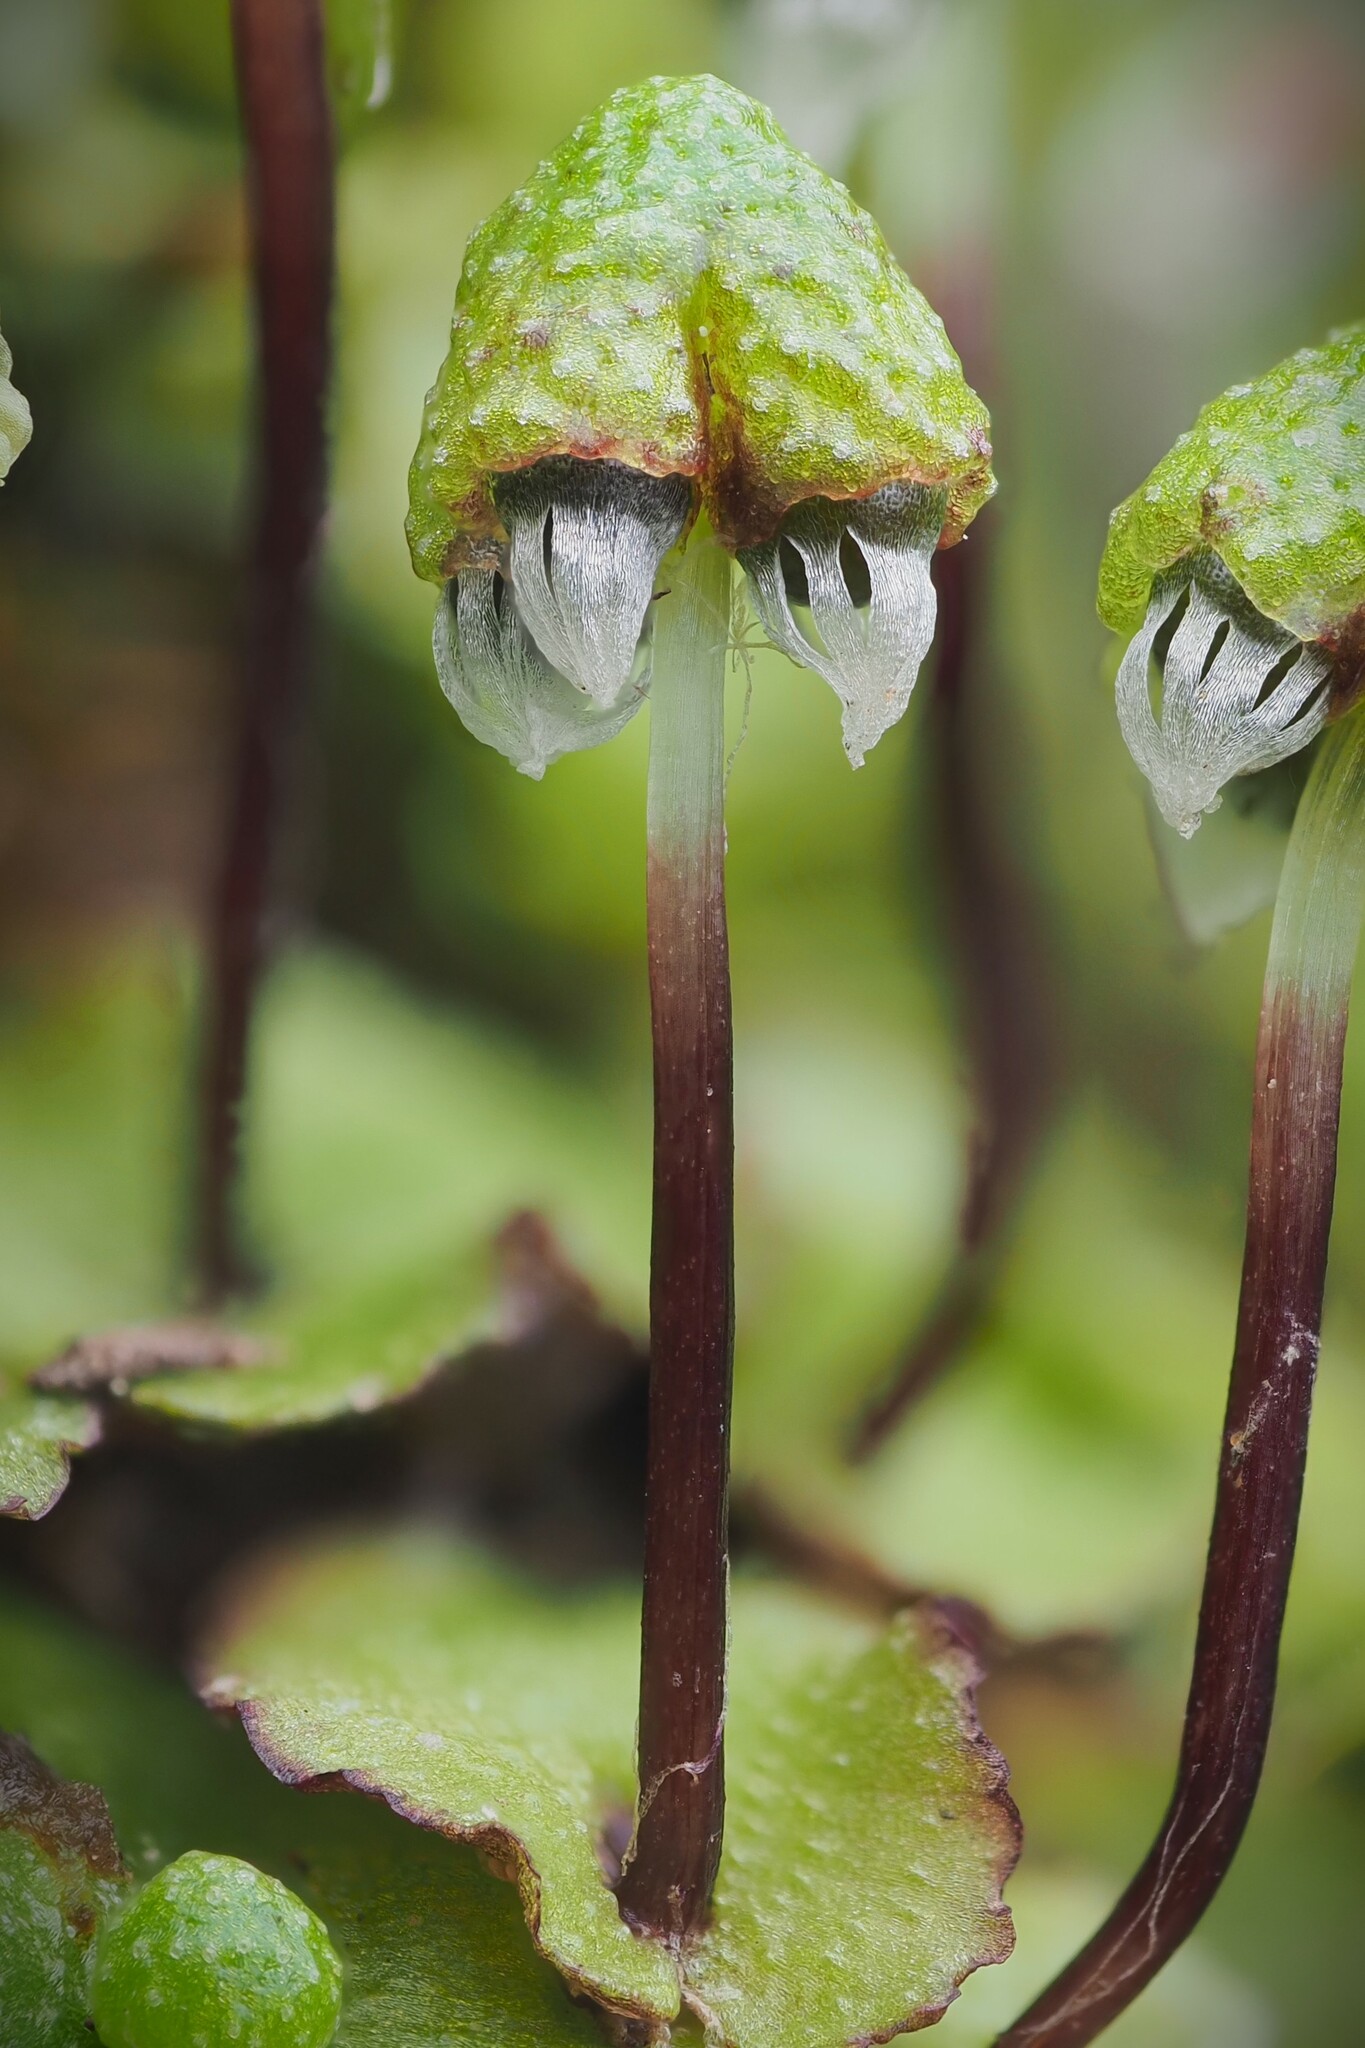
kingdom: Plantae
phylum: Marchantiophyta
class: Marchantiopsida
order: Marchantiales
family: Aytoniaceae
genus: Asterella
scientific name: Asterella australis
